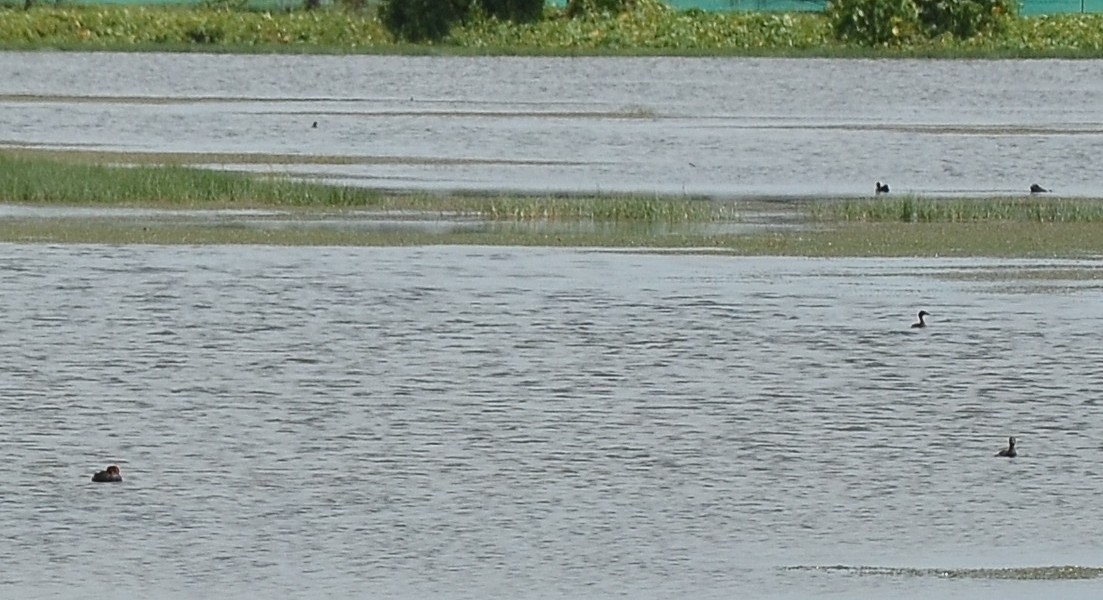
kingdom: Animalia
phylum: Chordata
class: Aves
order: Podicipediformes
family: Podicipedidae
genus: Tachybaptus
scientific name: Tachybaptus ruficollis
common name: Little grebe
